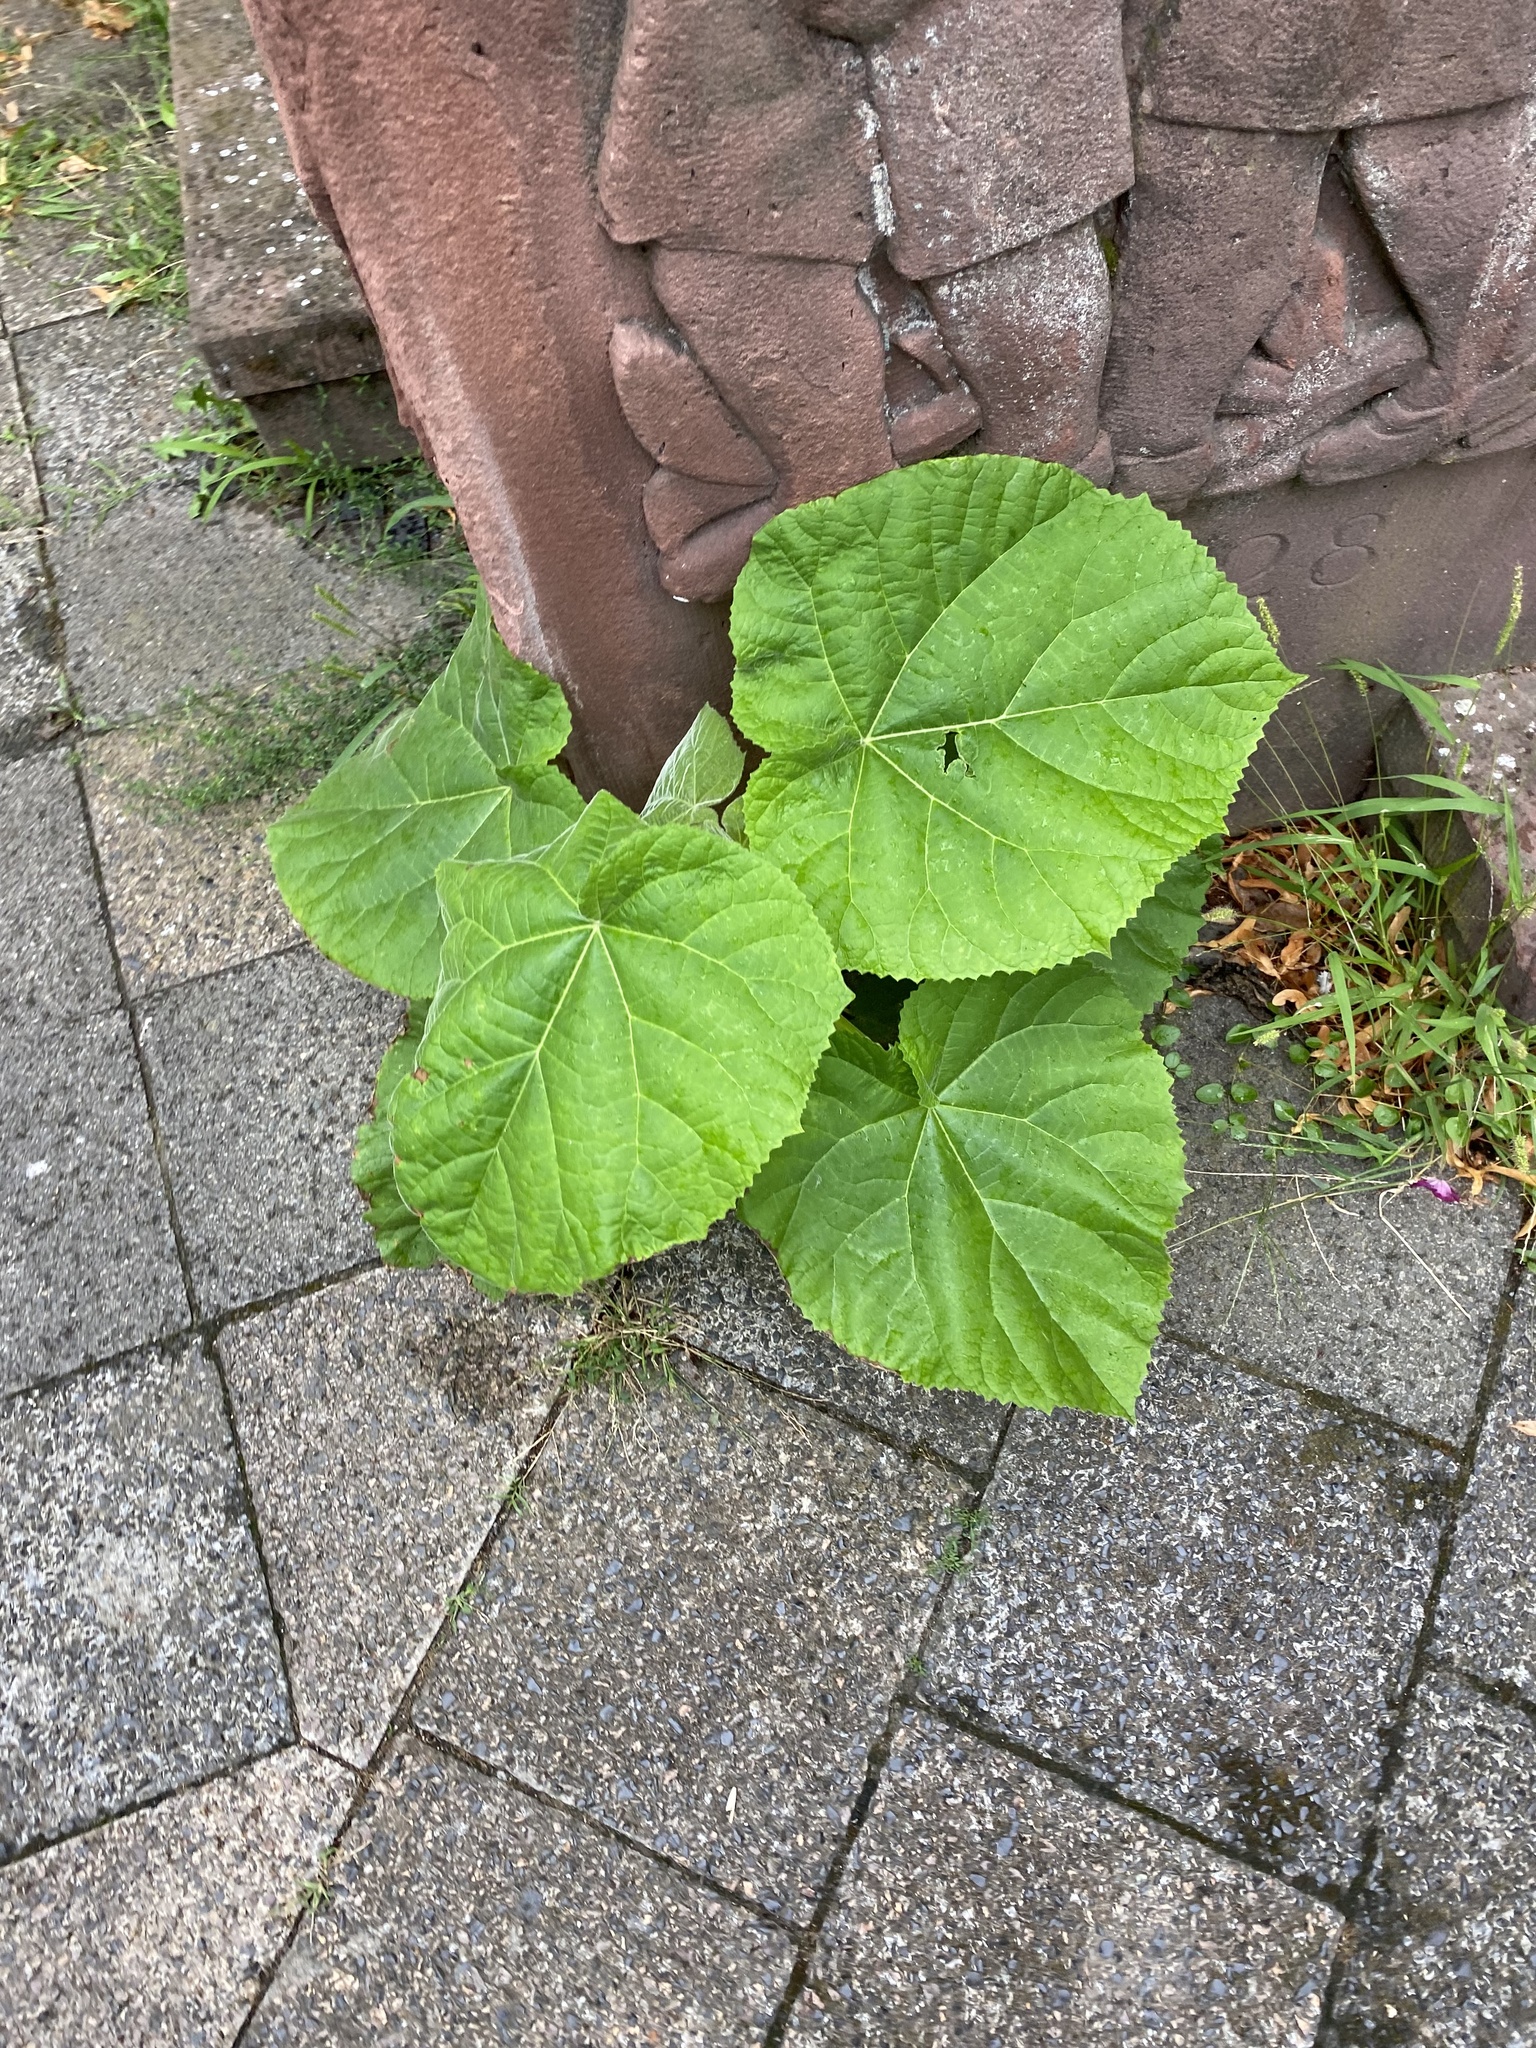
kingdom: Plantae
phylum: Tracheophyta
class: Magnoliopsida
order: Lamiales
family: Paulowniaceae
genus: Paulownia
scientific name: Paulownia tomentosa
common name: Foxglove-tree
